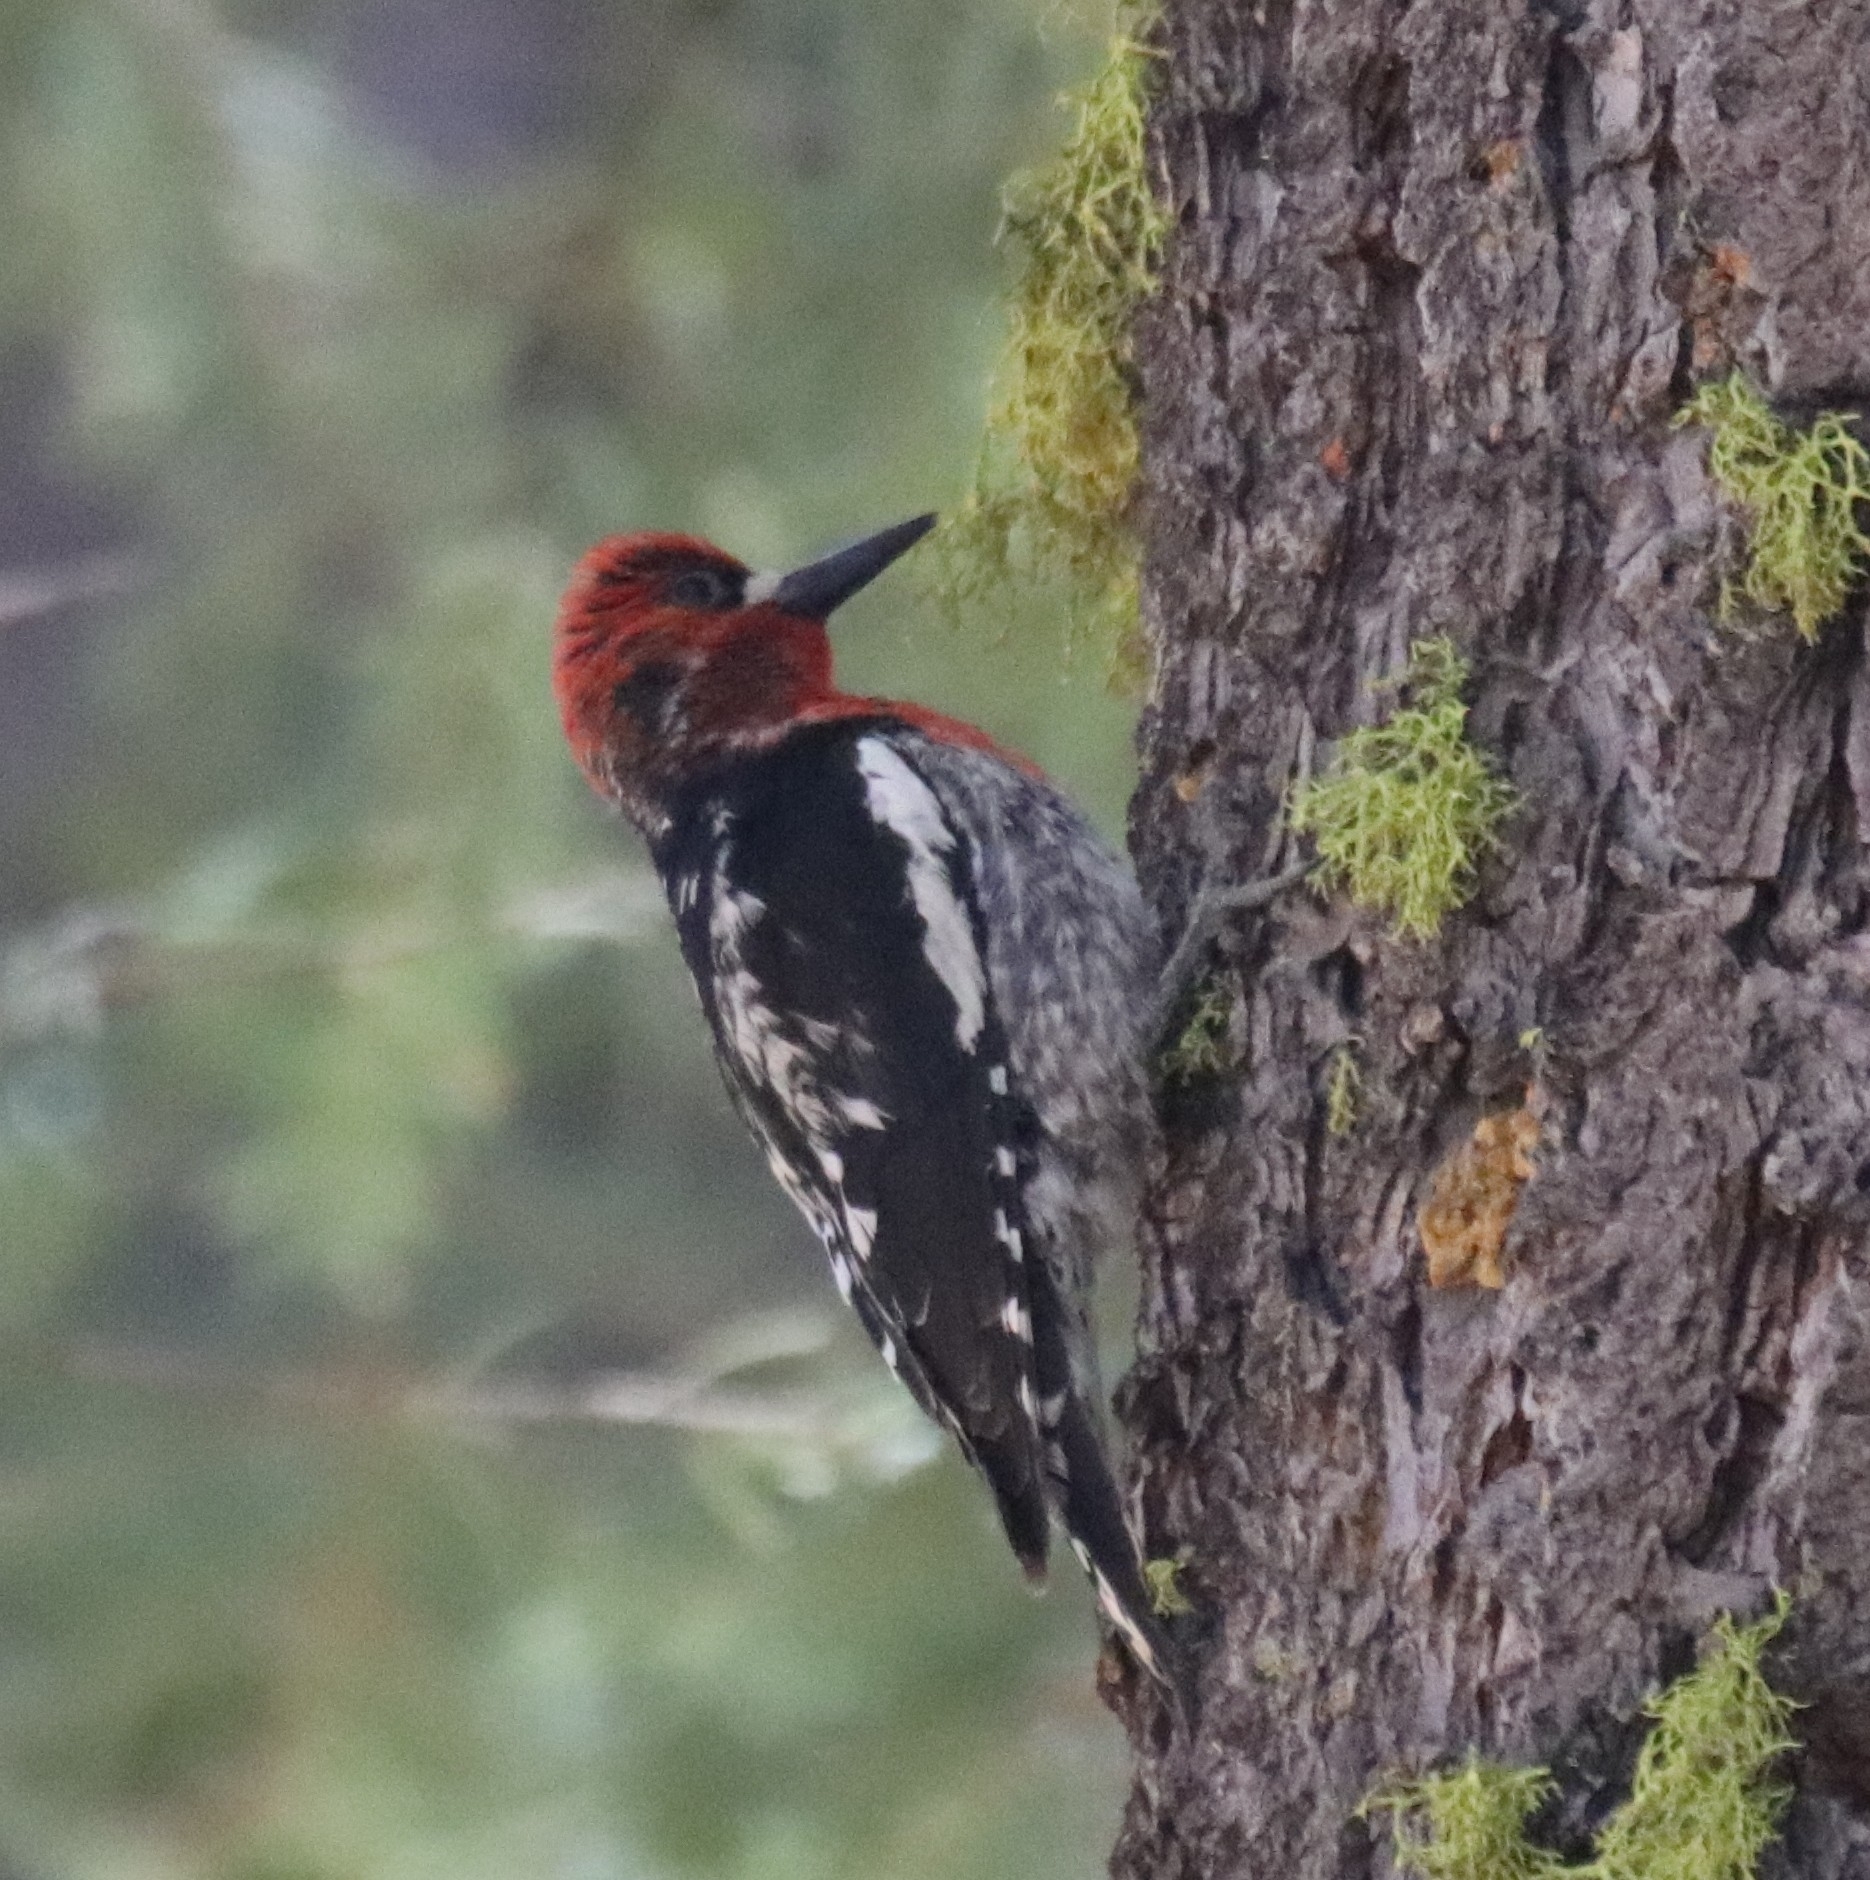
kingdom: Animalia
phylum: Chordata
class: Aves
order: Piciformes
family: Picidae
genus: Sphyrapicus
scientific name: Sphyrapicus ruber
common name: Red-breasted sapsucker
